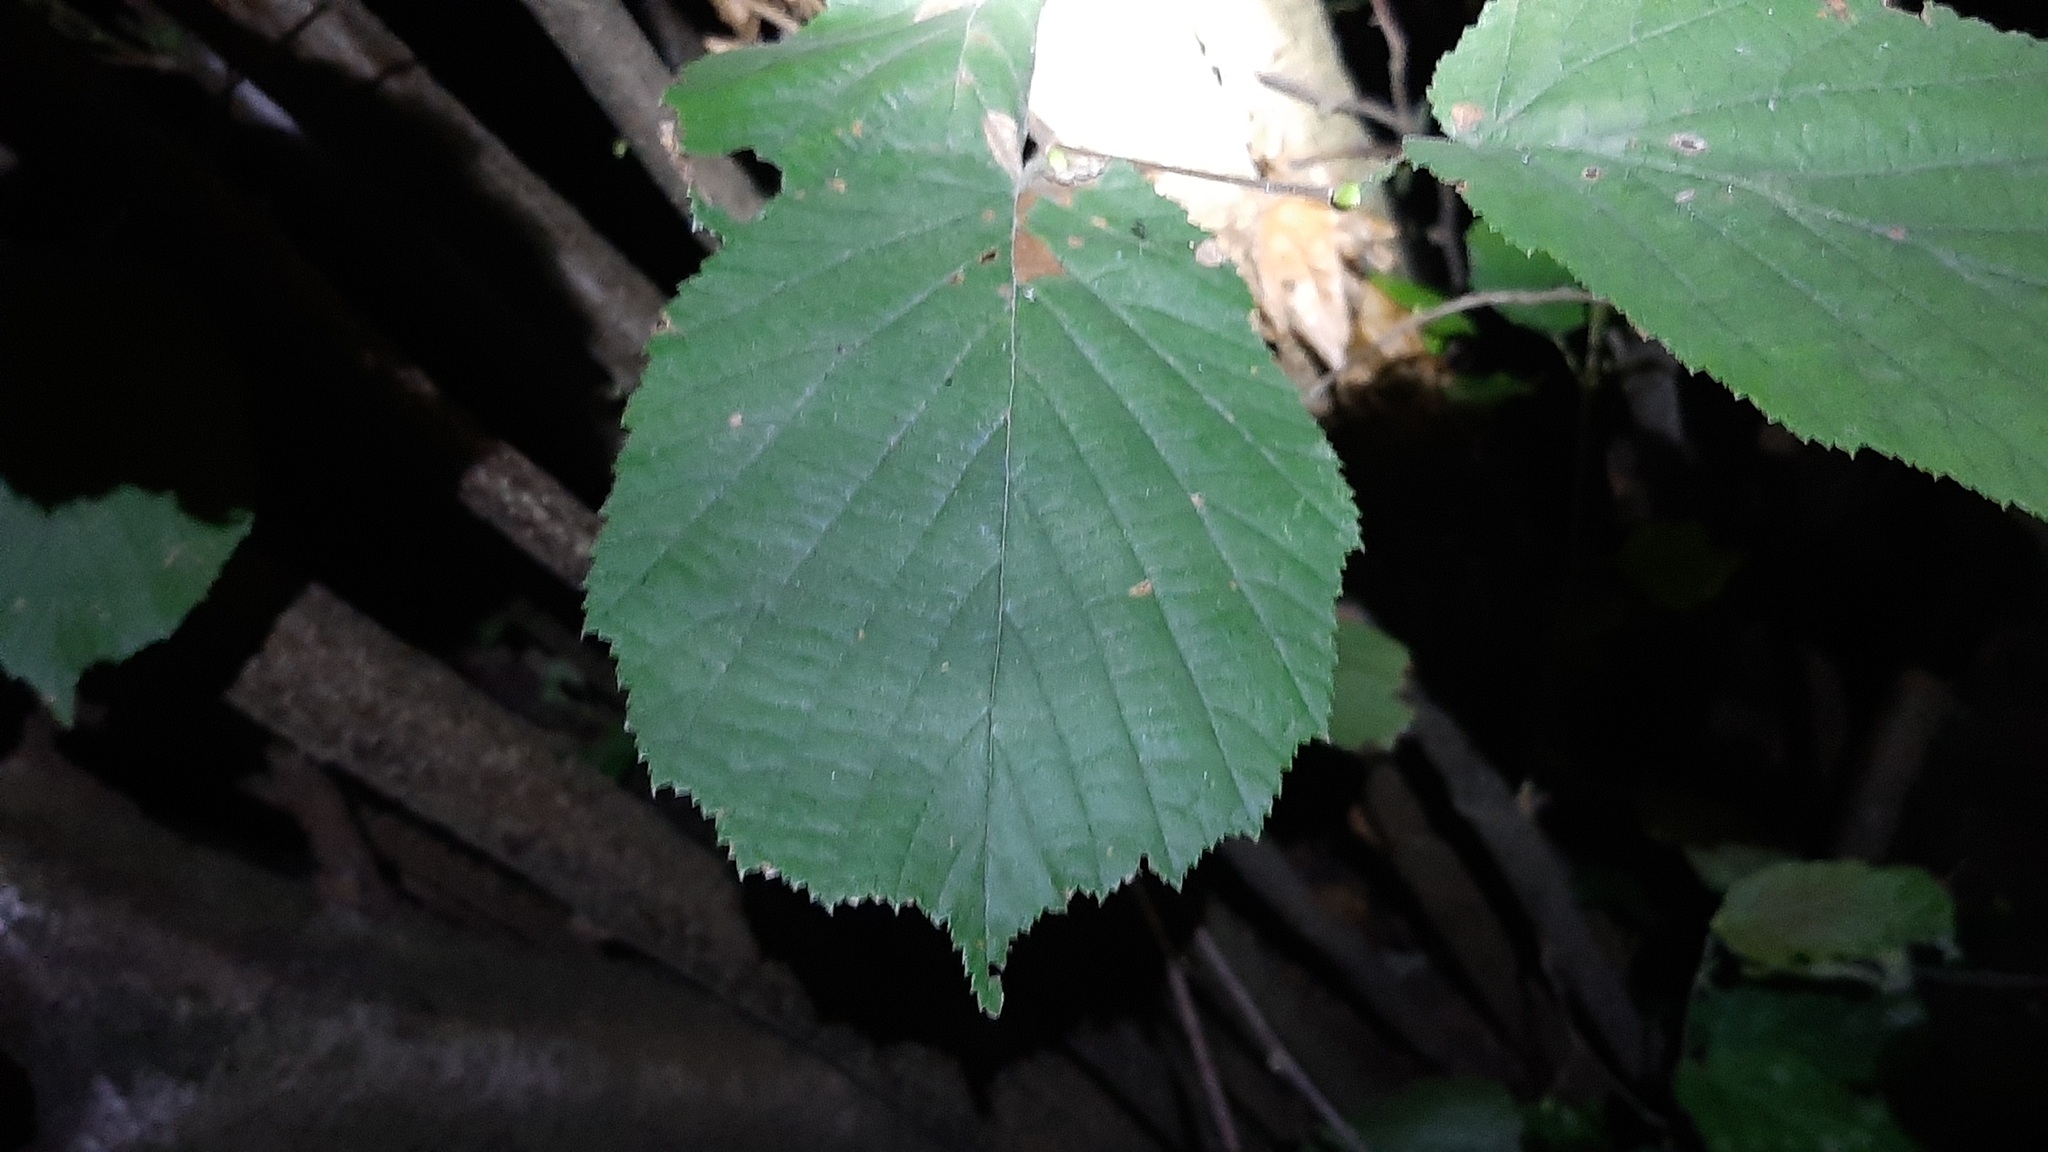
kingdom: Plantae
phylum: Tracheophyta
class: Magnoliopsida
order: Fagales
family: Betulaceae
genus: Corylus
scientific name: Corylus avellana
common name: European hazel
